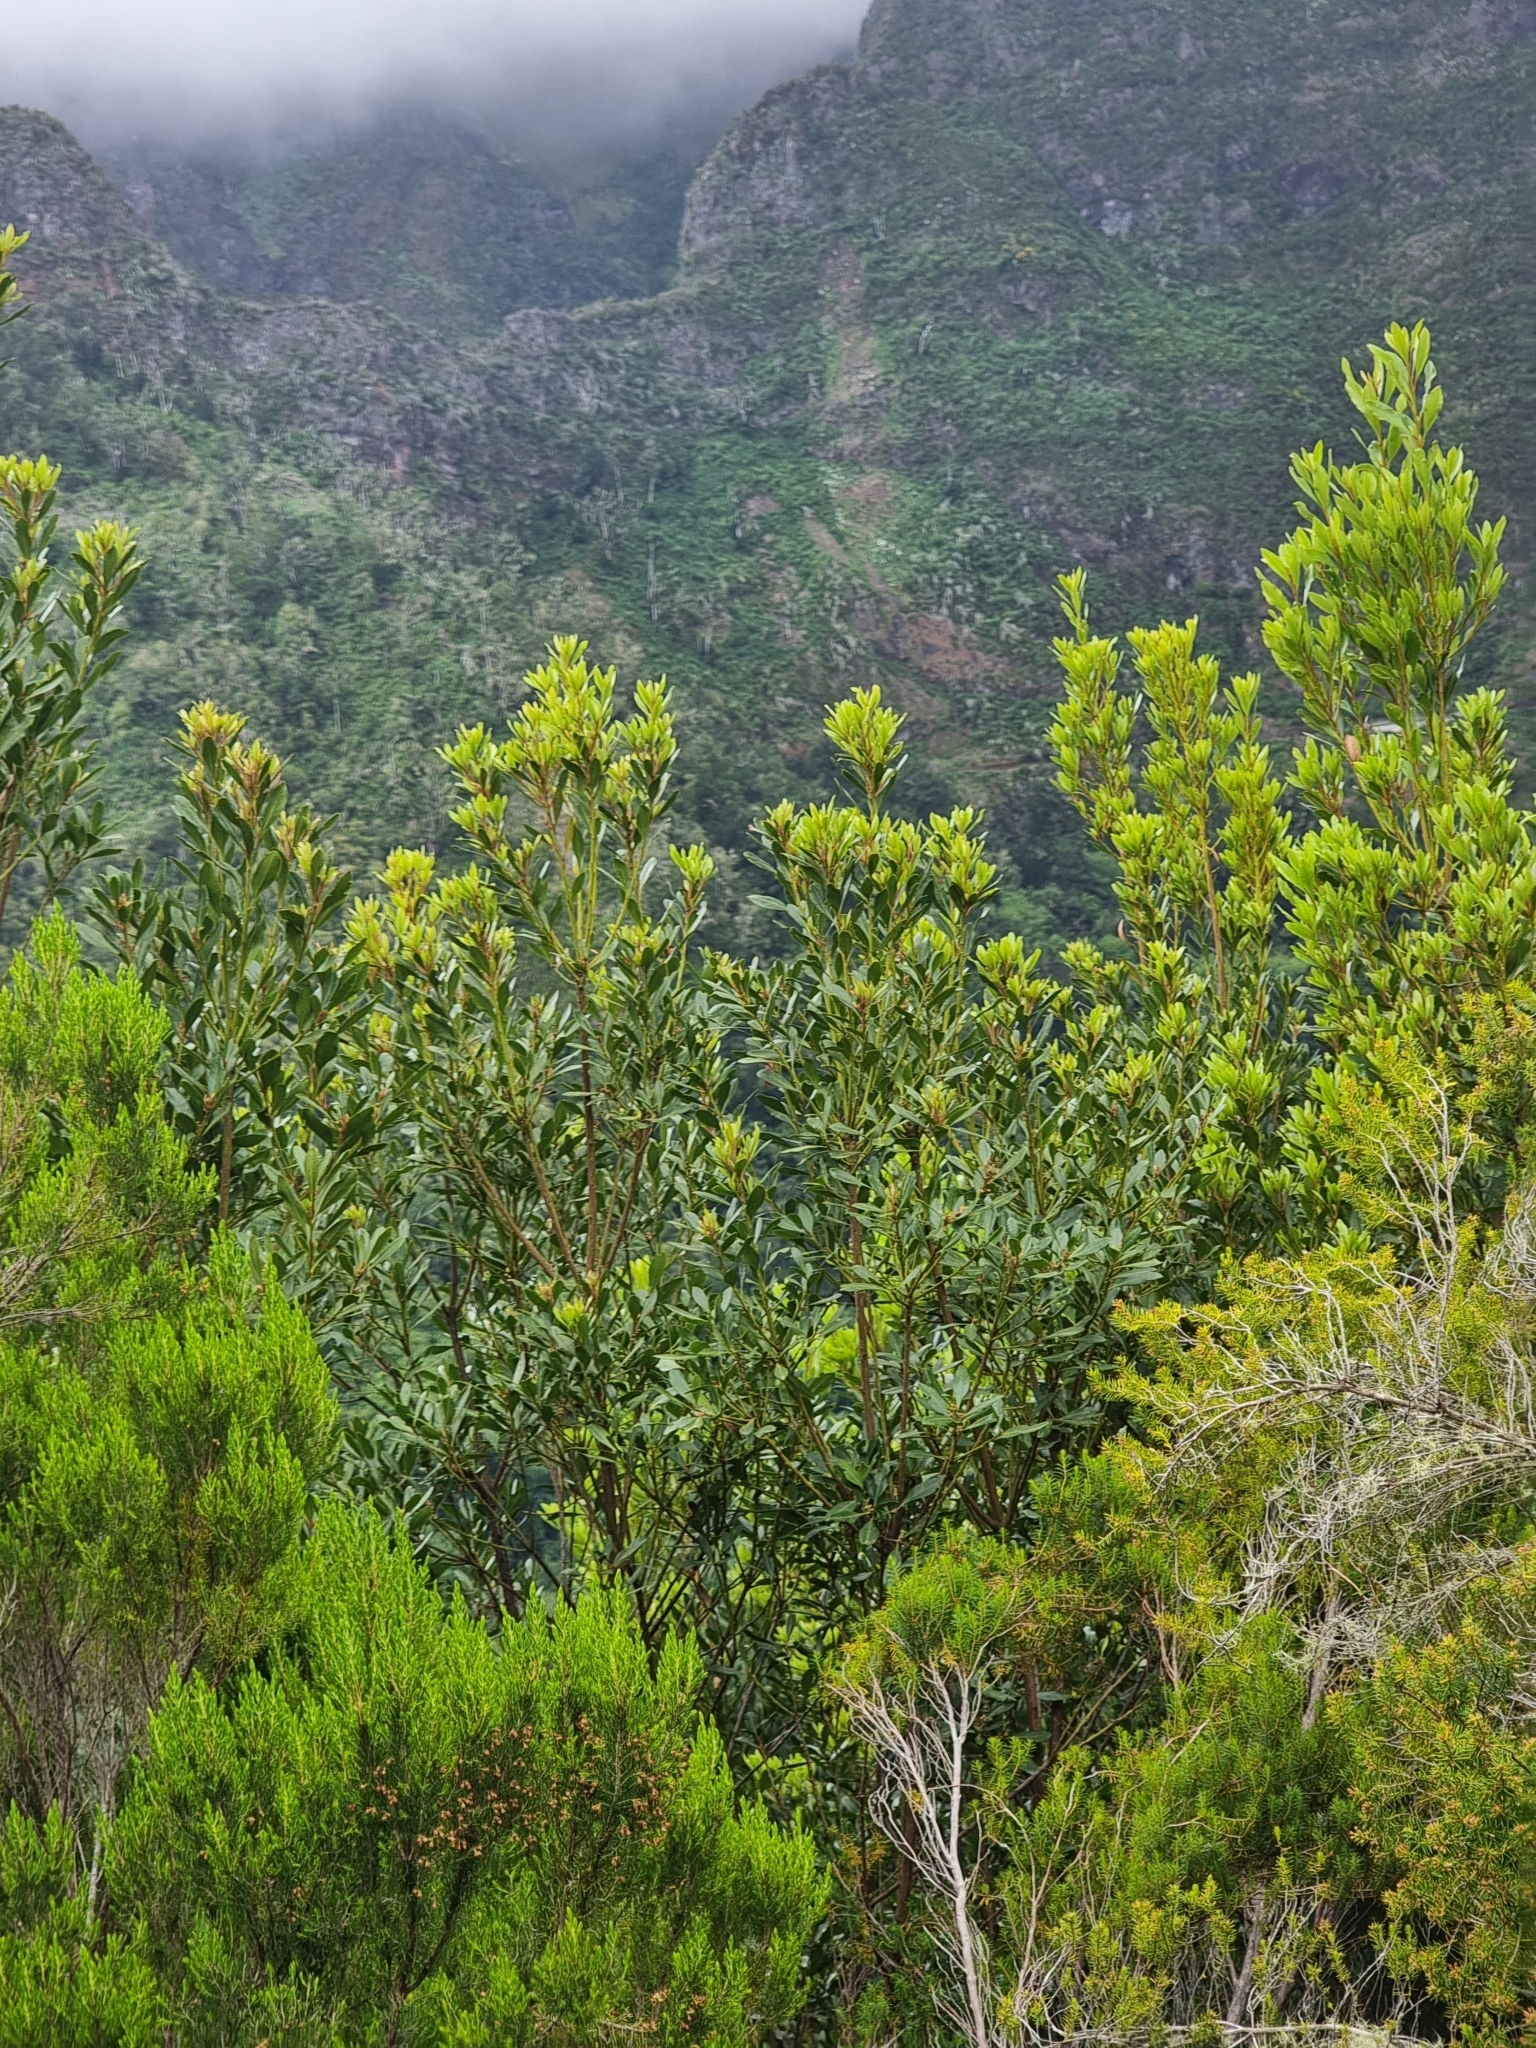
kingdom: Plantae
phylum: Tracheophyta
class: Magnoliopsida
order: Fagales
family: Myricaceae
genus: Morella
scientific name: Morella faya
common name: Firetree
